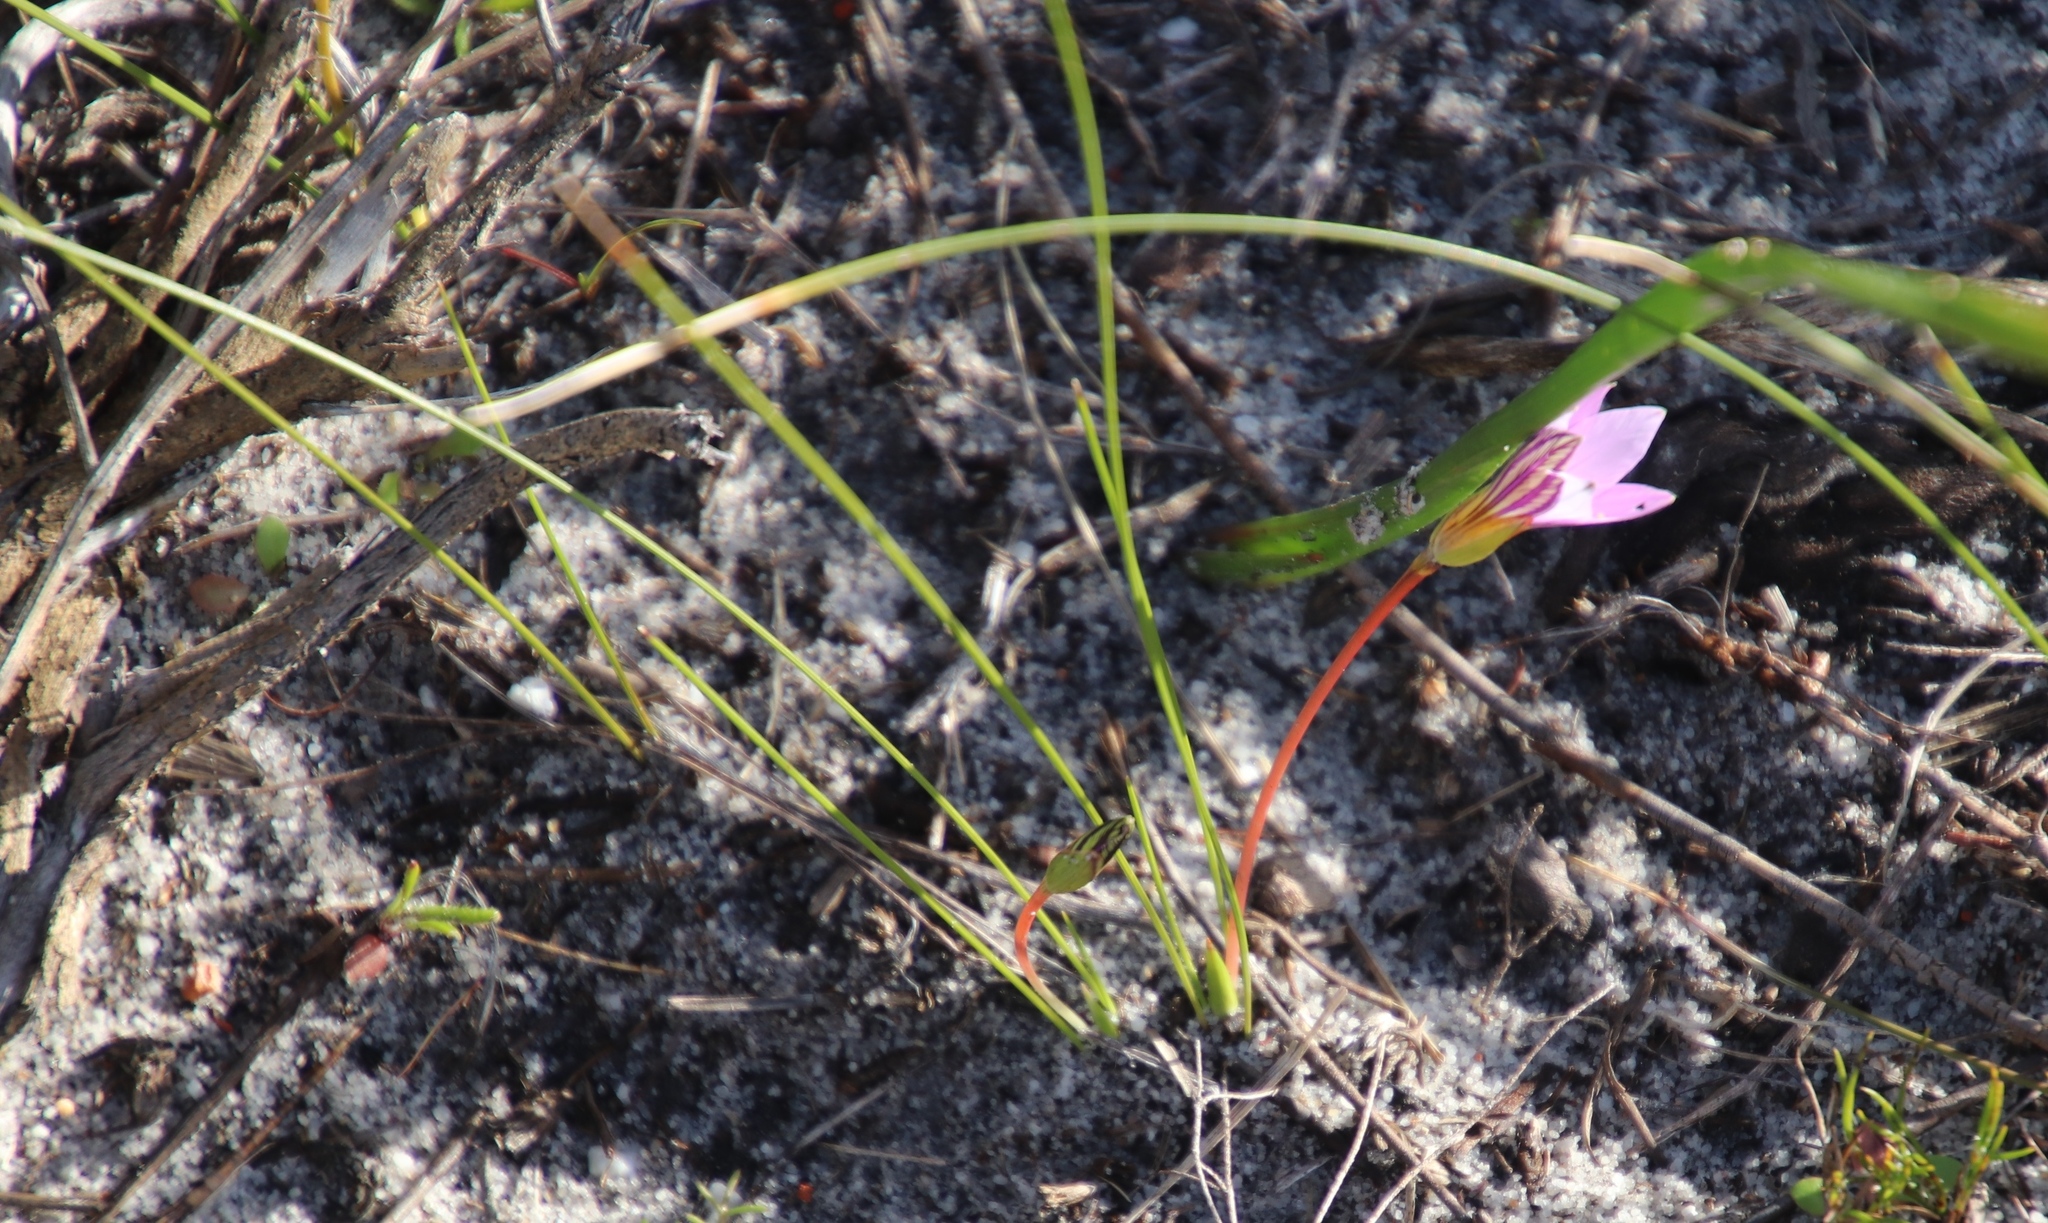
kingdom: Plantae
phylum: Tracheophyta
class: Liliopsida
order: Asparagales
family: Iridaceae
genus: Romulea
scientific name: Romulea rosea
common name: Oniongrass
